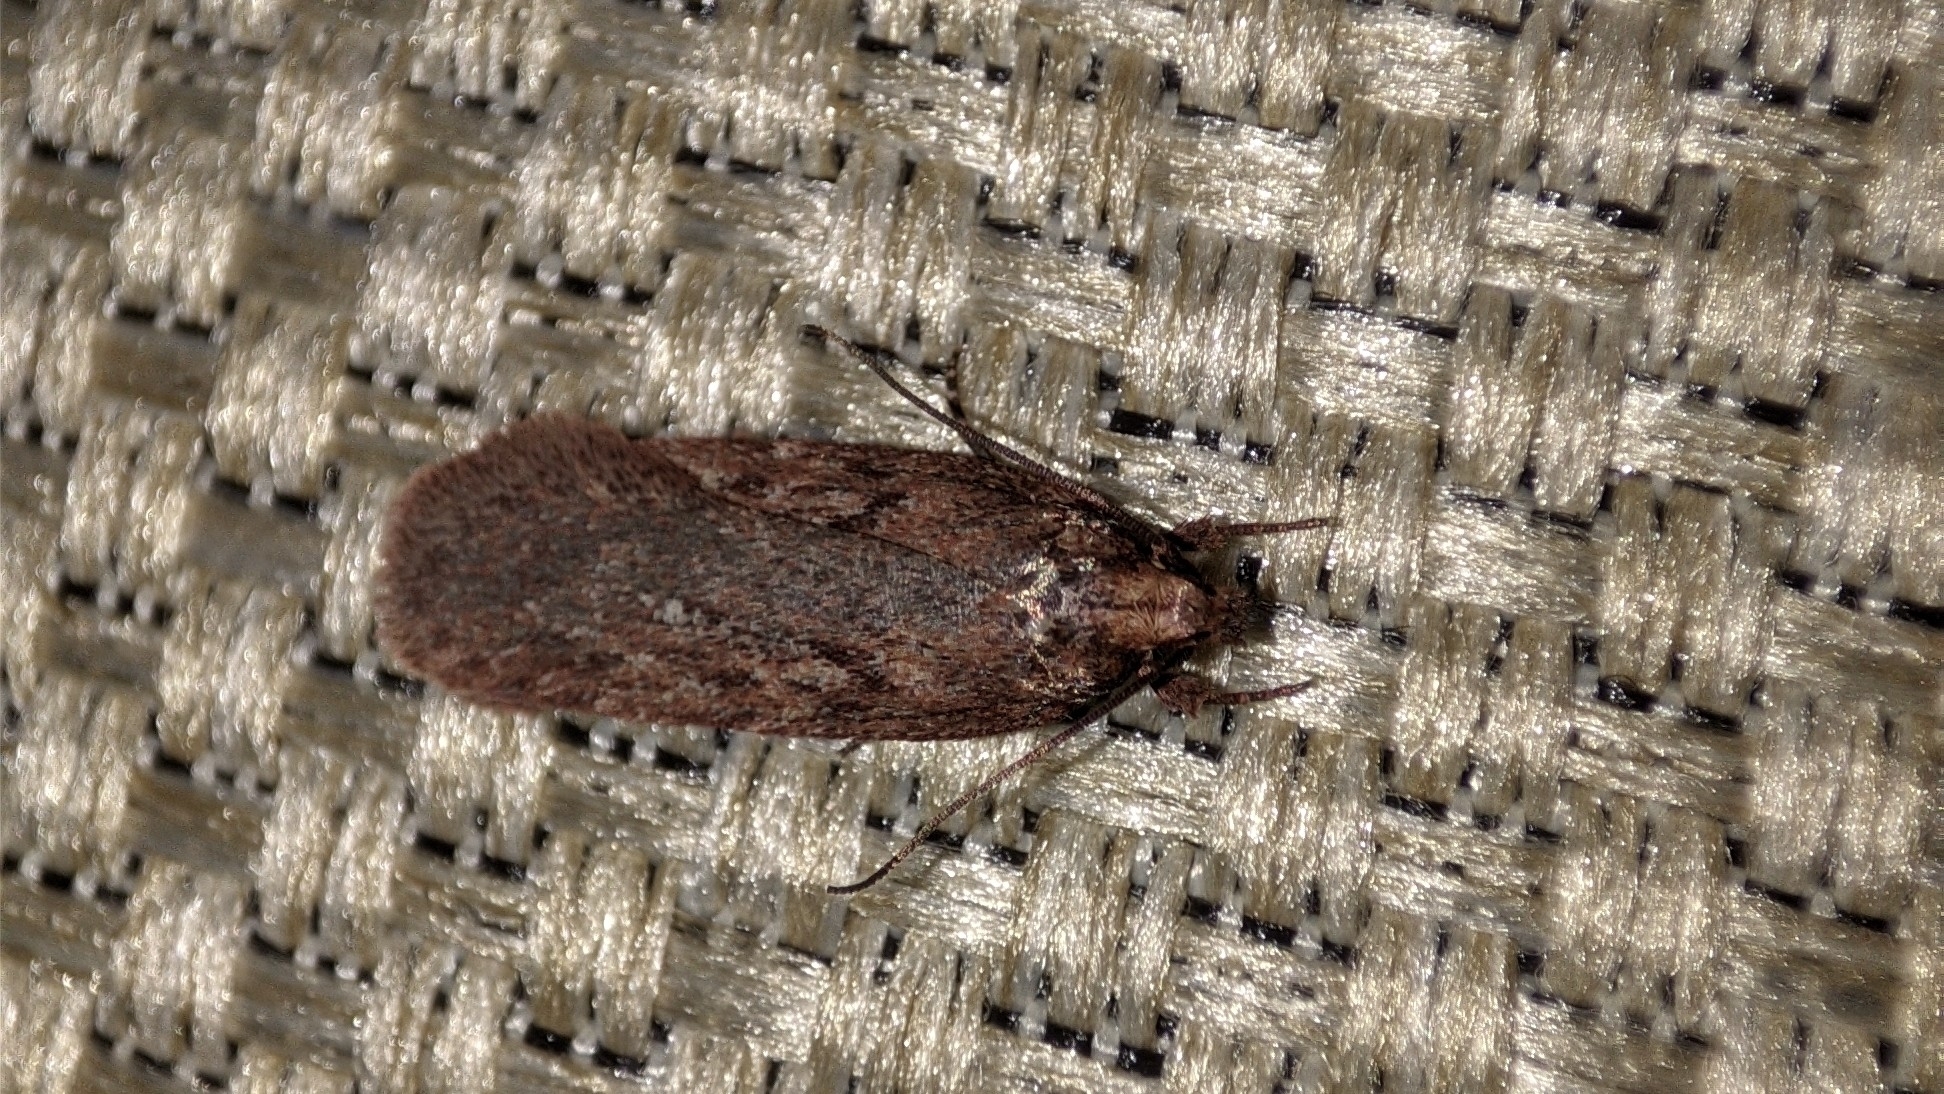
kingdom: Animalia
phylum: Arthropoda
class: Insecta
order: Lepidoptera
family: Depressariidae
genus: Depressaria
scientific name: Depressaria olerella
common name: Yarrow flat-body
